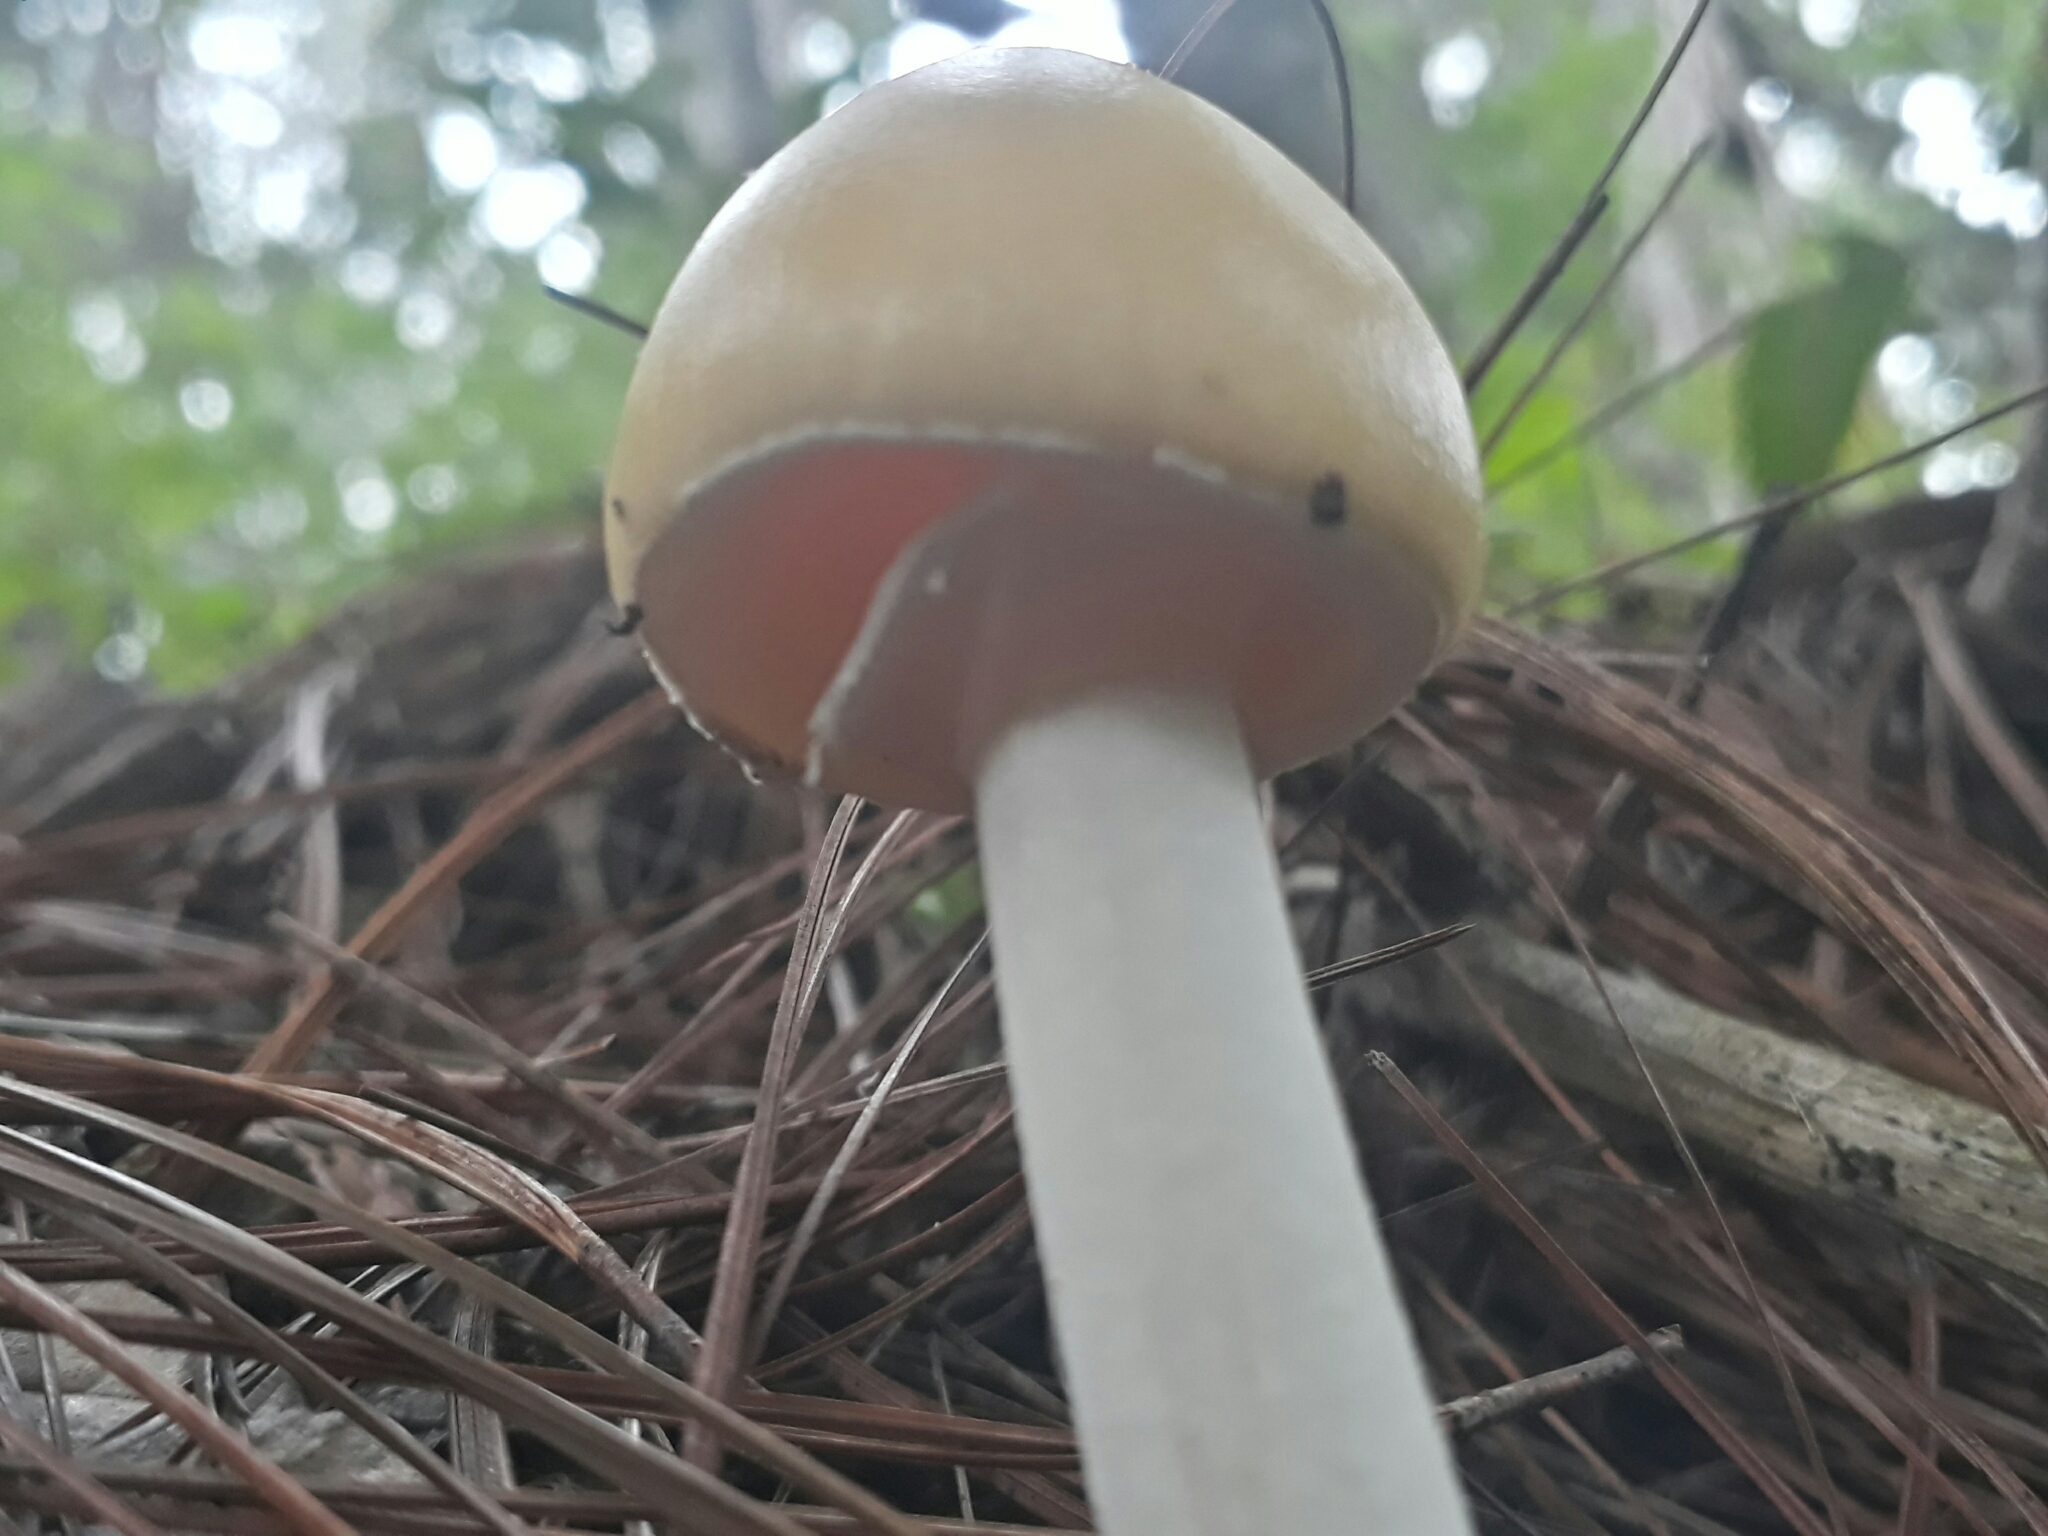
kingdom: Fungi
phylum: Basidiomycota
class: Agaricomycetes
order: Agaricales
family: Amanitaceae
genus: Amanita
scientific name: Amanita xylinivolva
